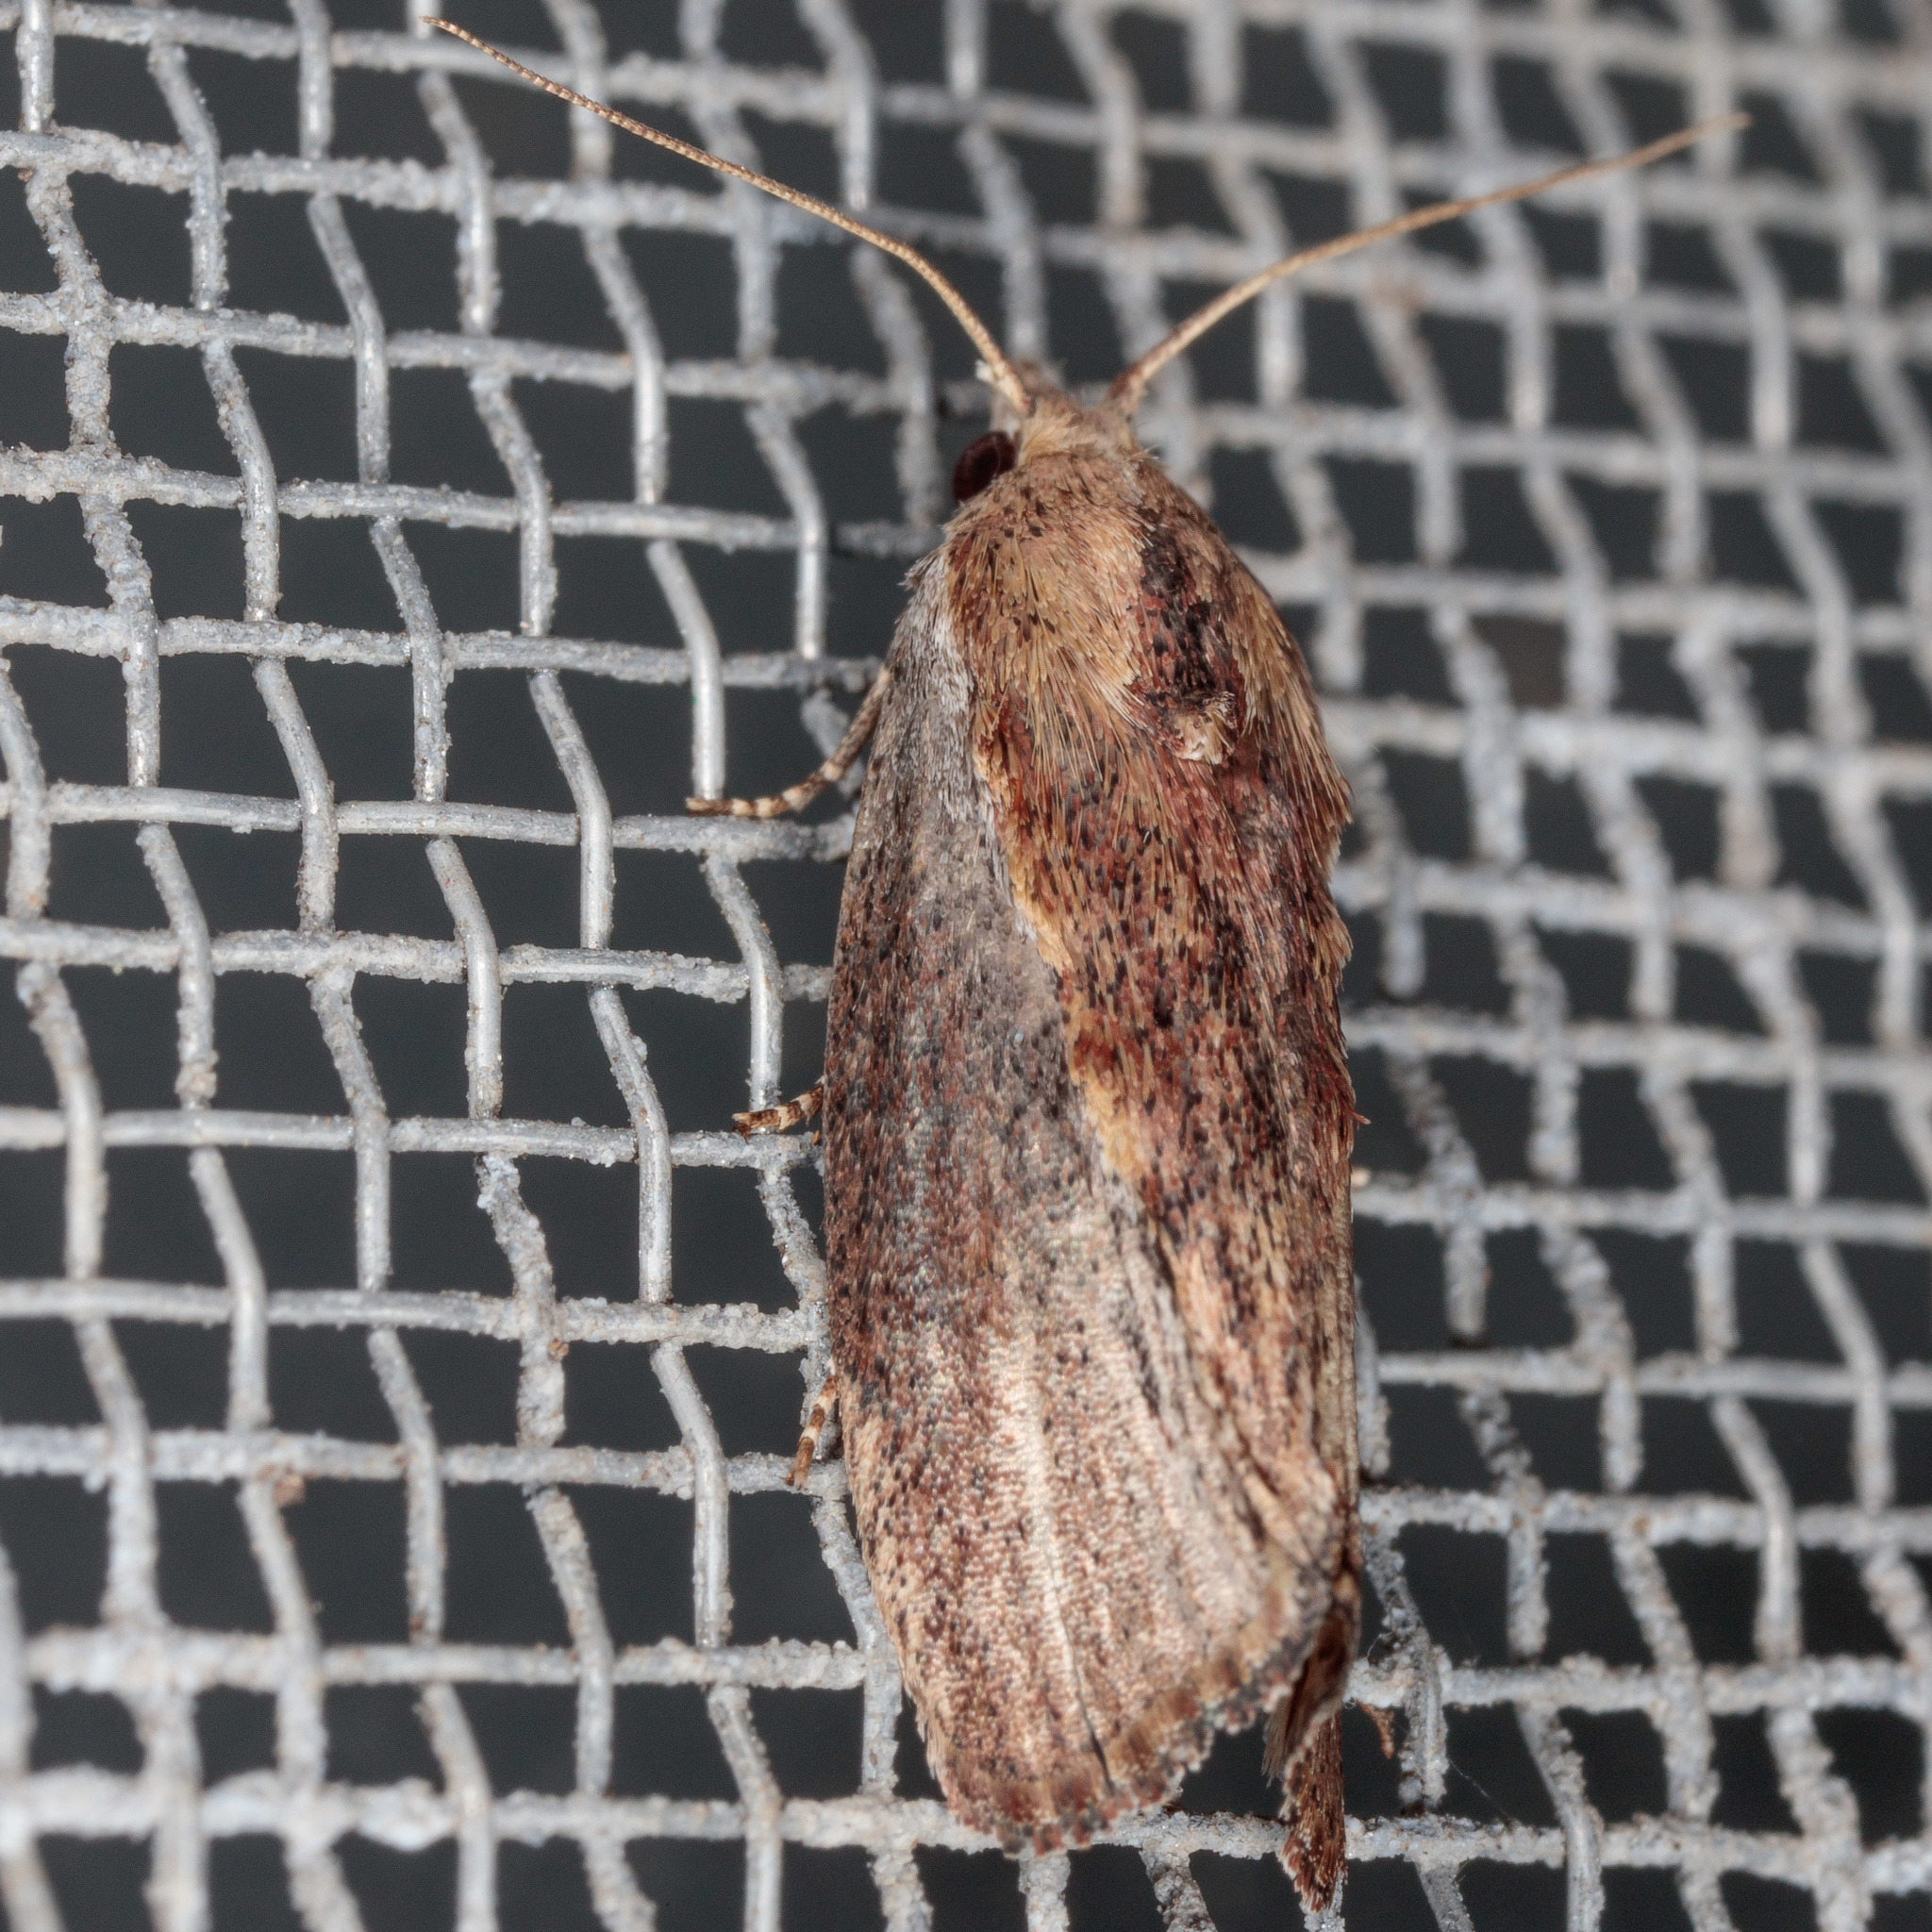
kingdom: Animalia
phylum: Arthropoda
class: Insecta
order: Lepidoptera
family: Pyralidae
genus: Galleria
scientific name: Galleria mellonella
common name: Greater wax moth
